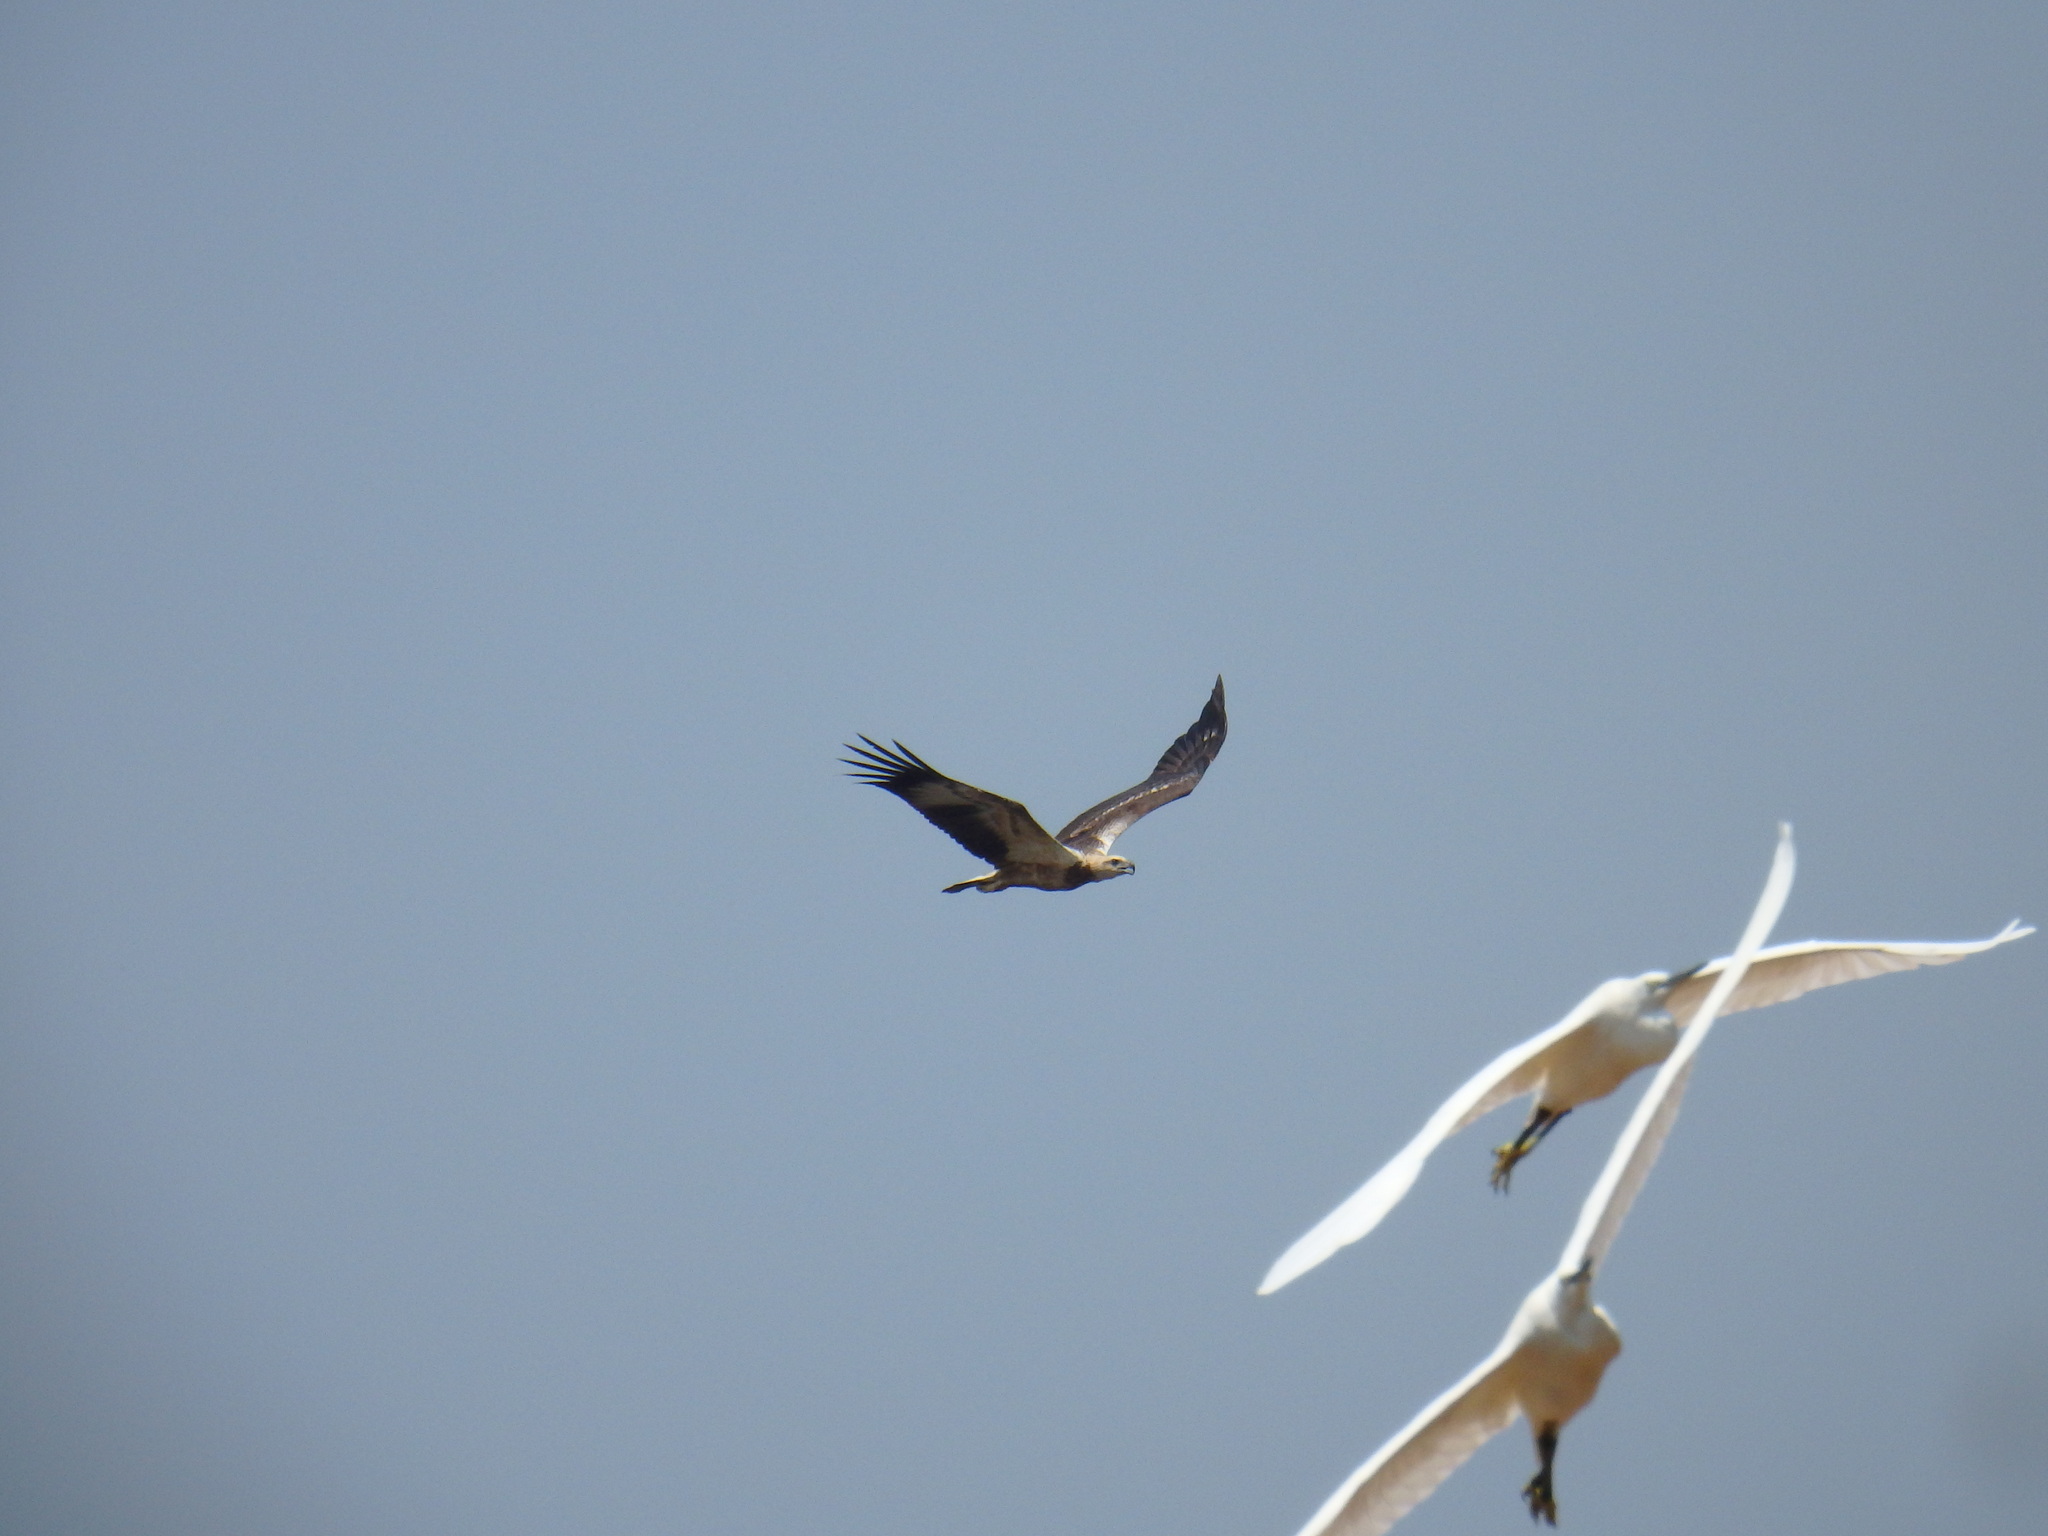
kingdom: Animalia
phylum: Chordata
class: Aves
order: Accipitriformes
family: Accipitridae
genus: Haliaeetus
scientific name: Haliaeetus leucogaster
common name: White-bellied sea eagle
